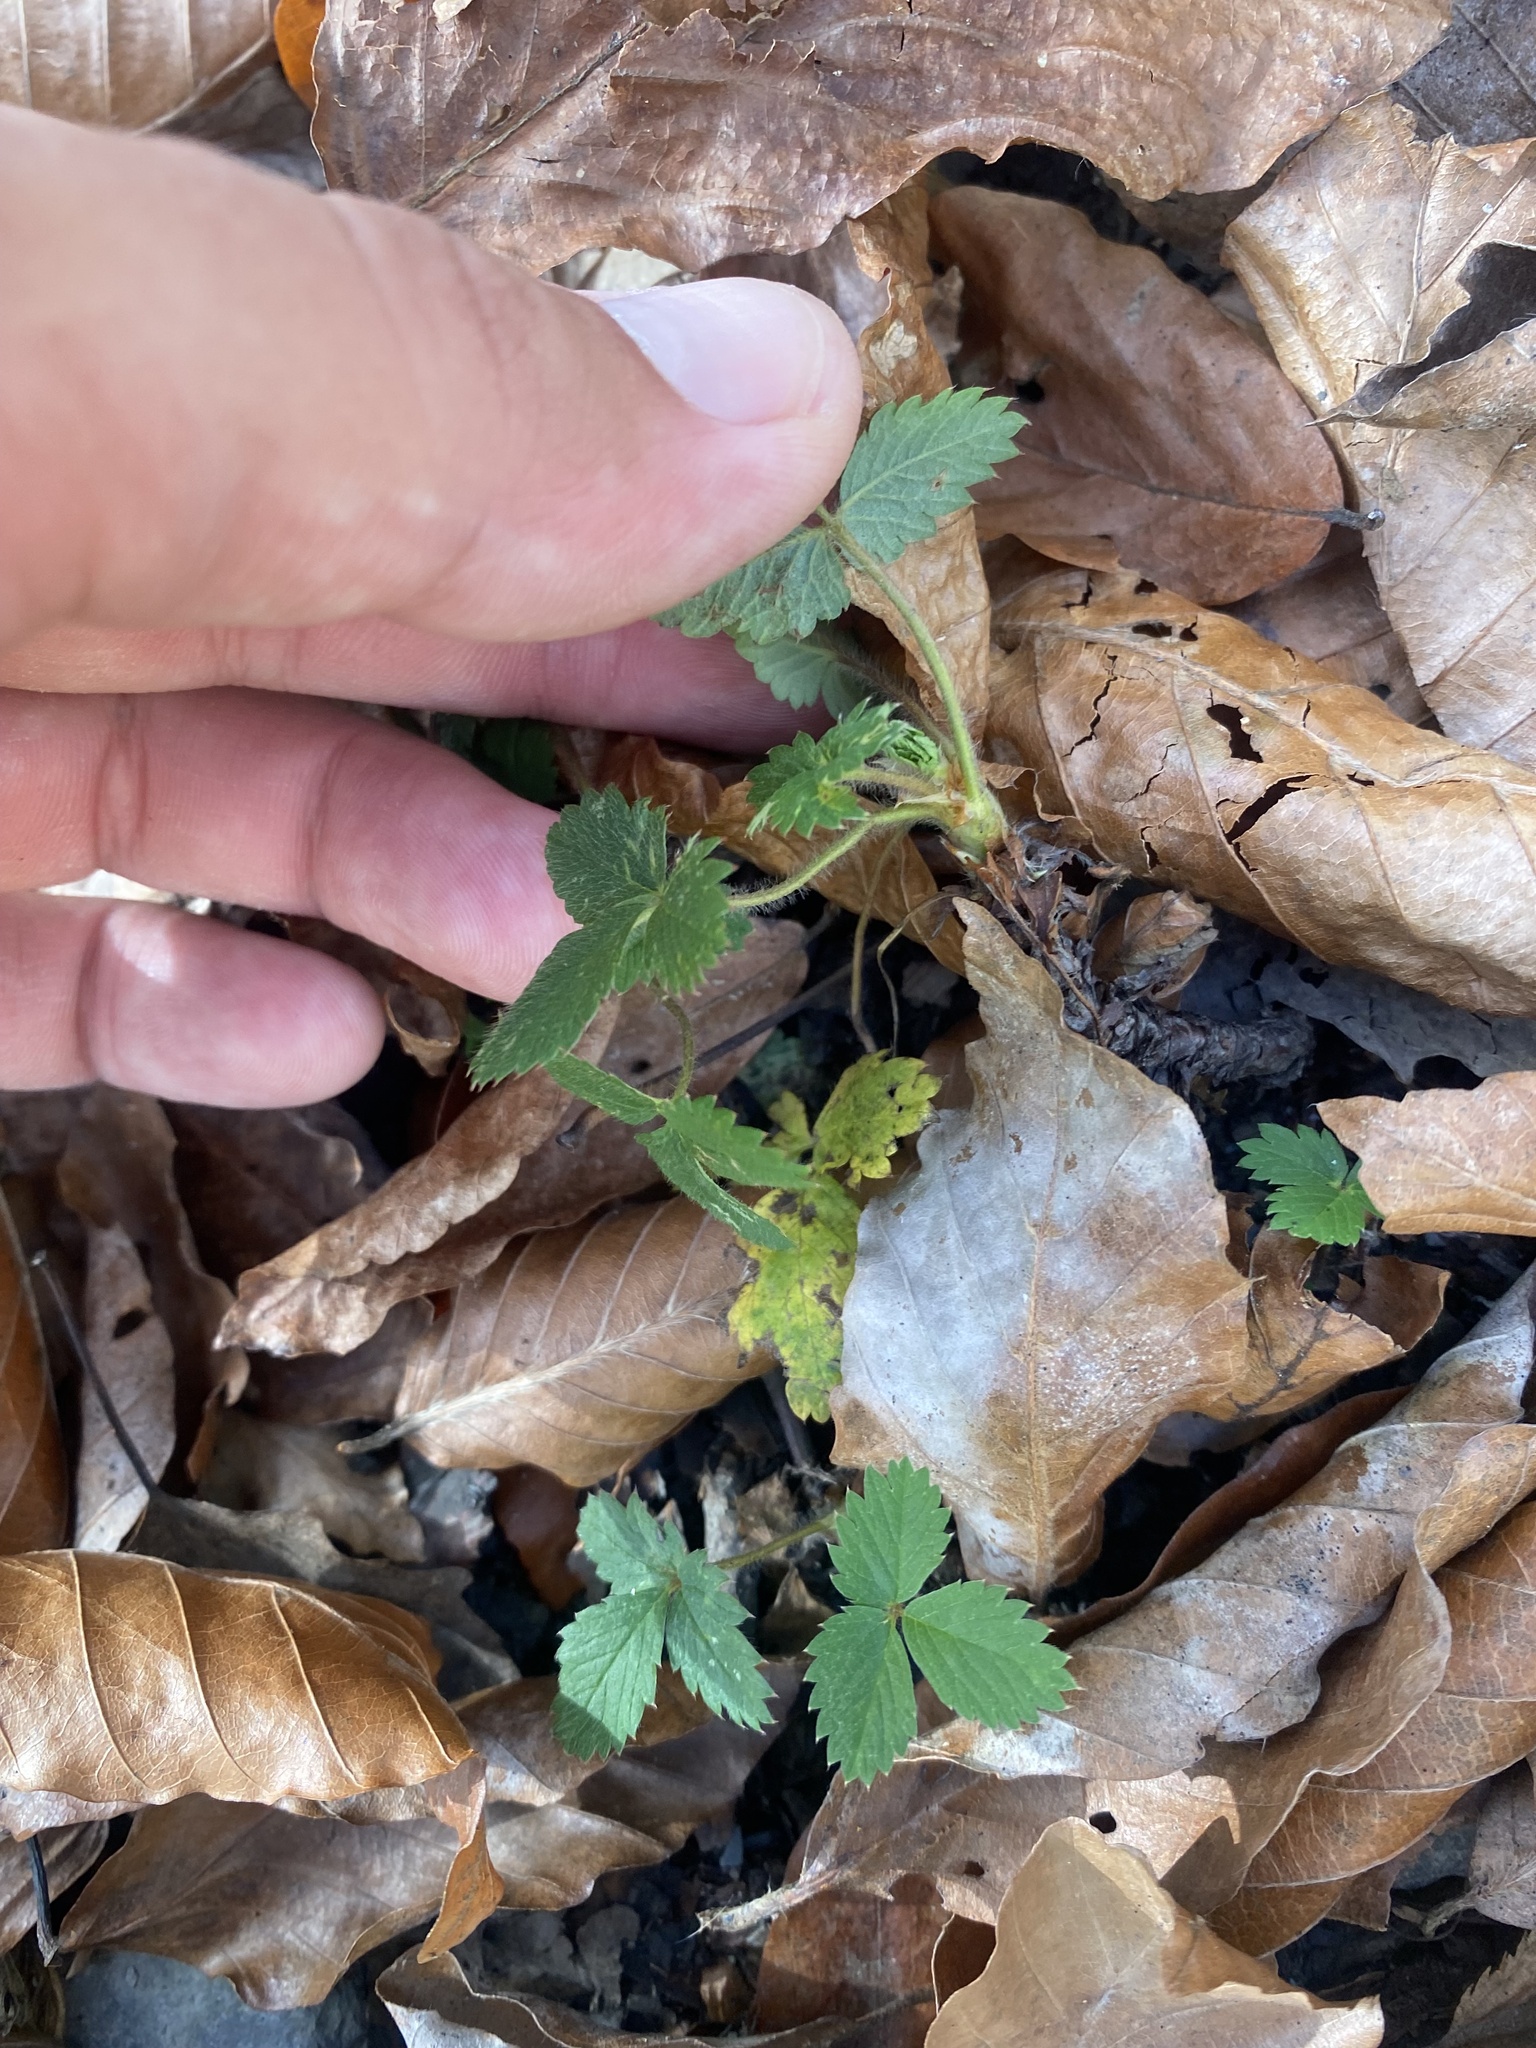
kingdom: Plantae
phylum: Tracheophyta
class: Magnoliopsida
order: Rosales
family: Rosaceae
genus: Potentilla
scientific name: Potentilla micrantha
